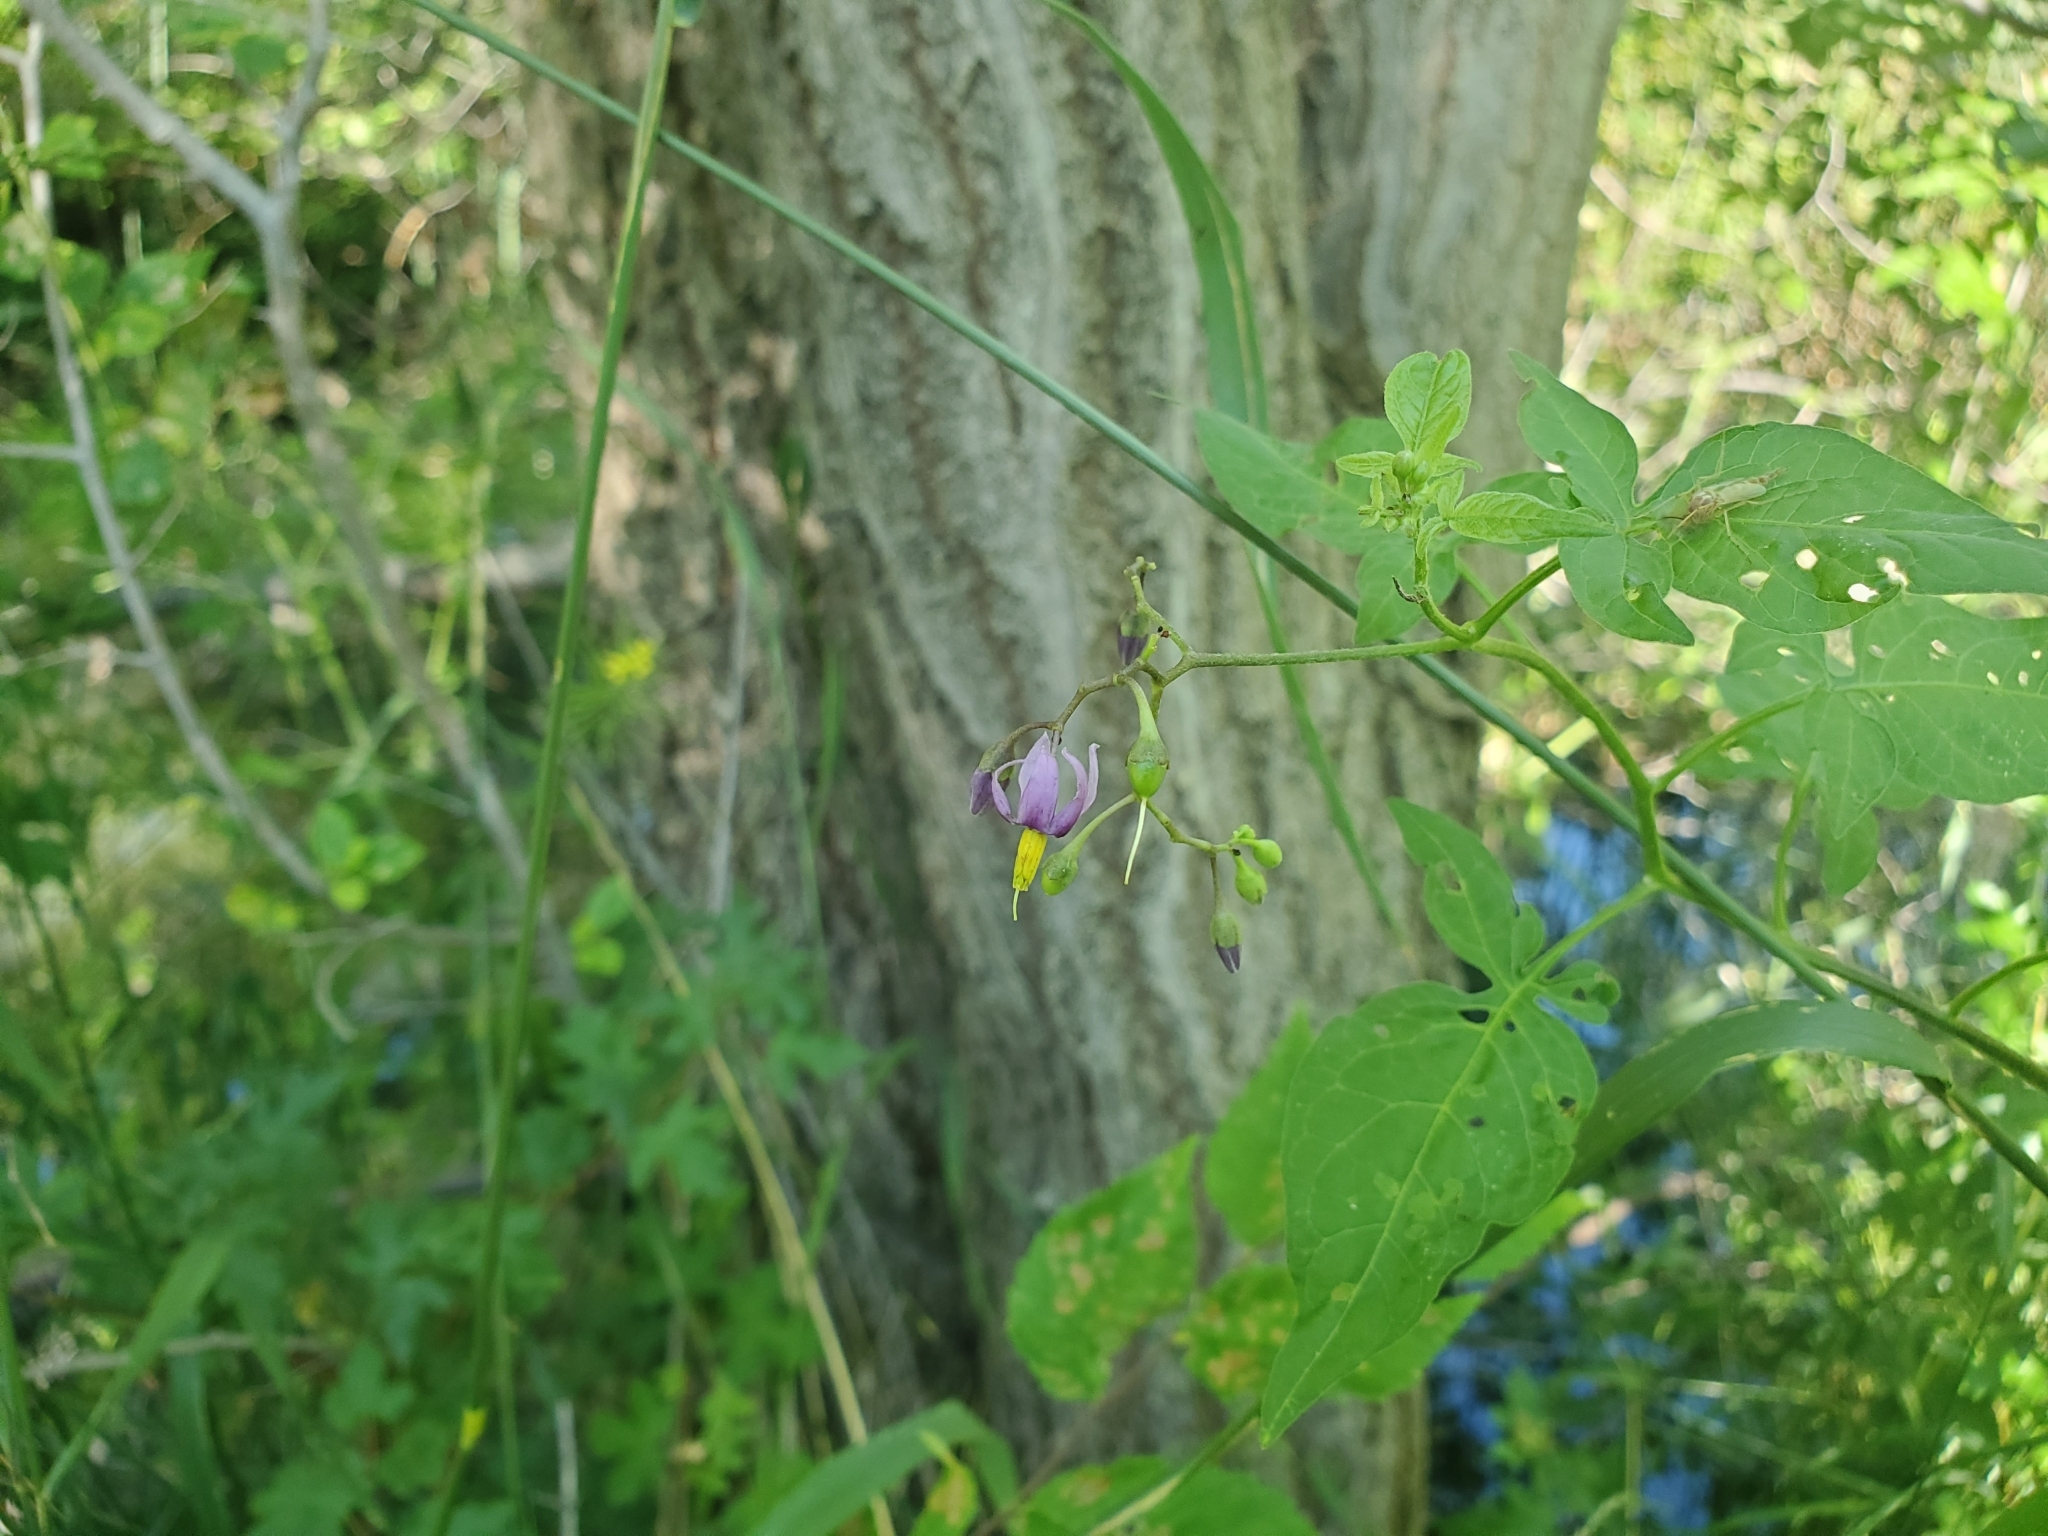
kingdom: Plantae
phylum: Tracheophyta
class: Magnoliopsida
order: Solanales
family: Solanaceae
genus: Solanum
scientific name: Solanum dulcamara
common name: Climbing nightshade
